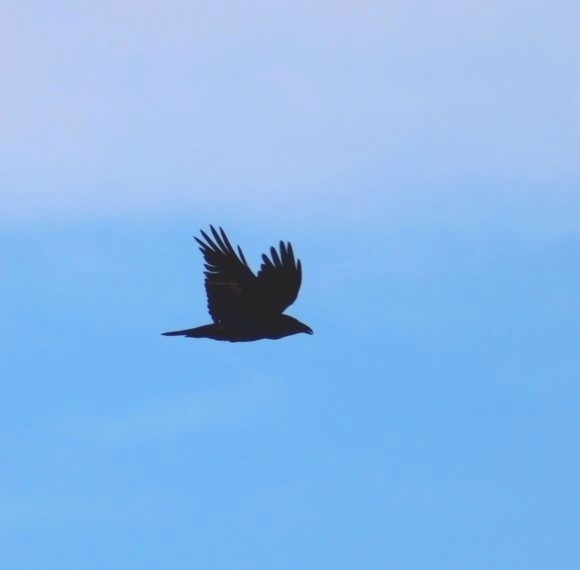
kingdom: Animalia
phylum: Chordata
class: Aves
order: Passeriformes
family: Corvidae
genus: Corvus
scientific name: Corvus corax
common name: Common raven
